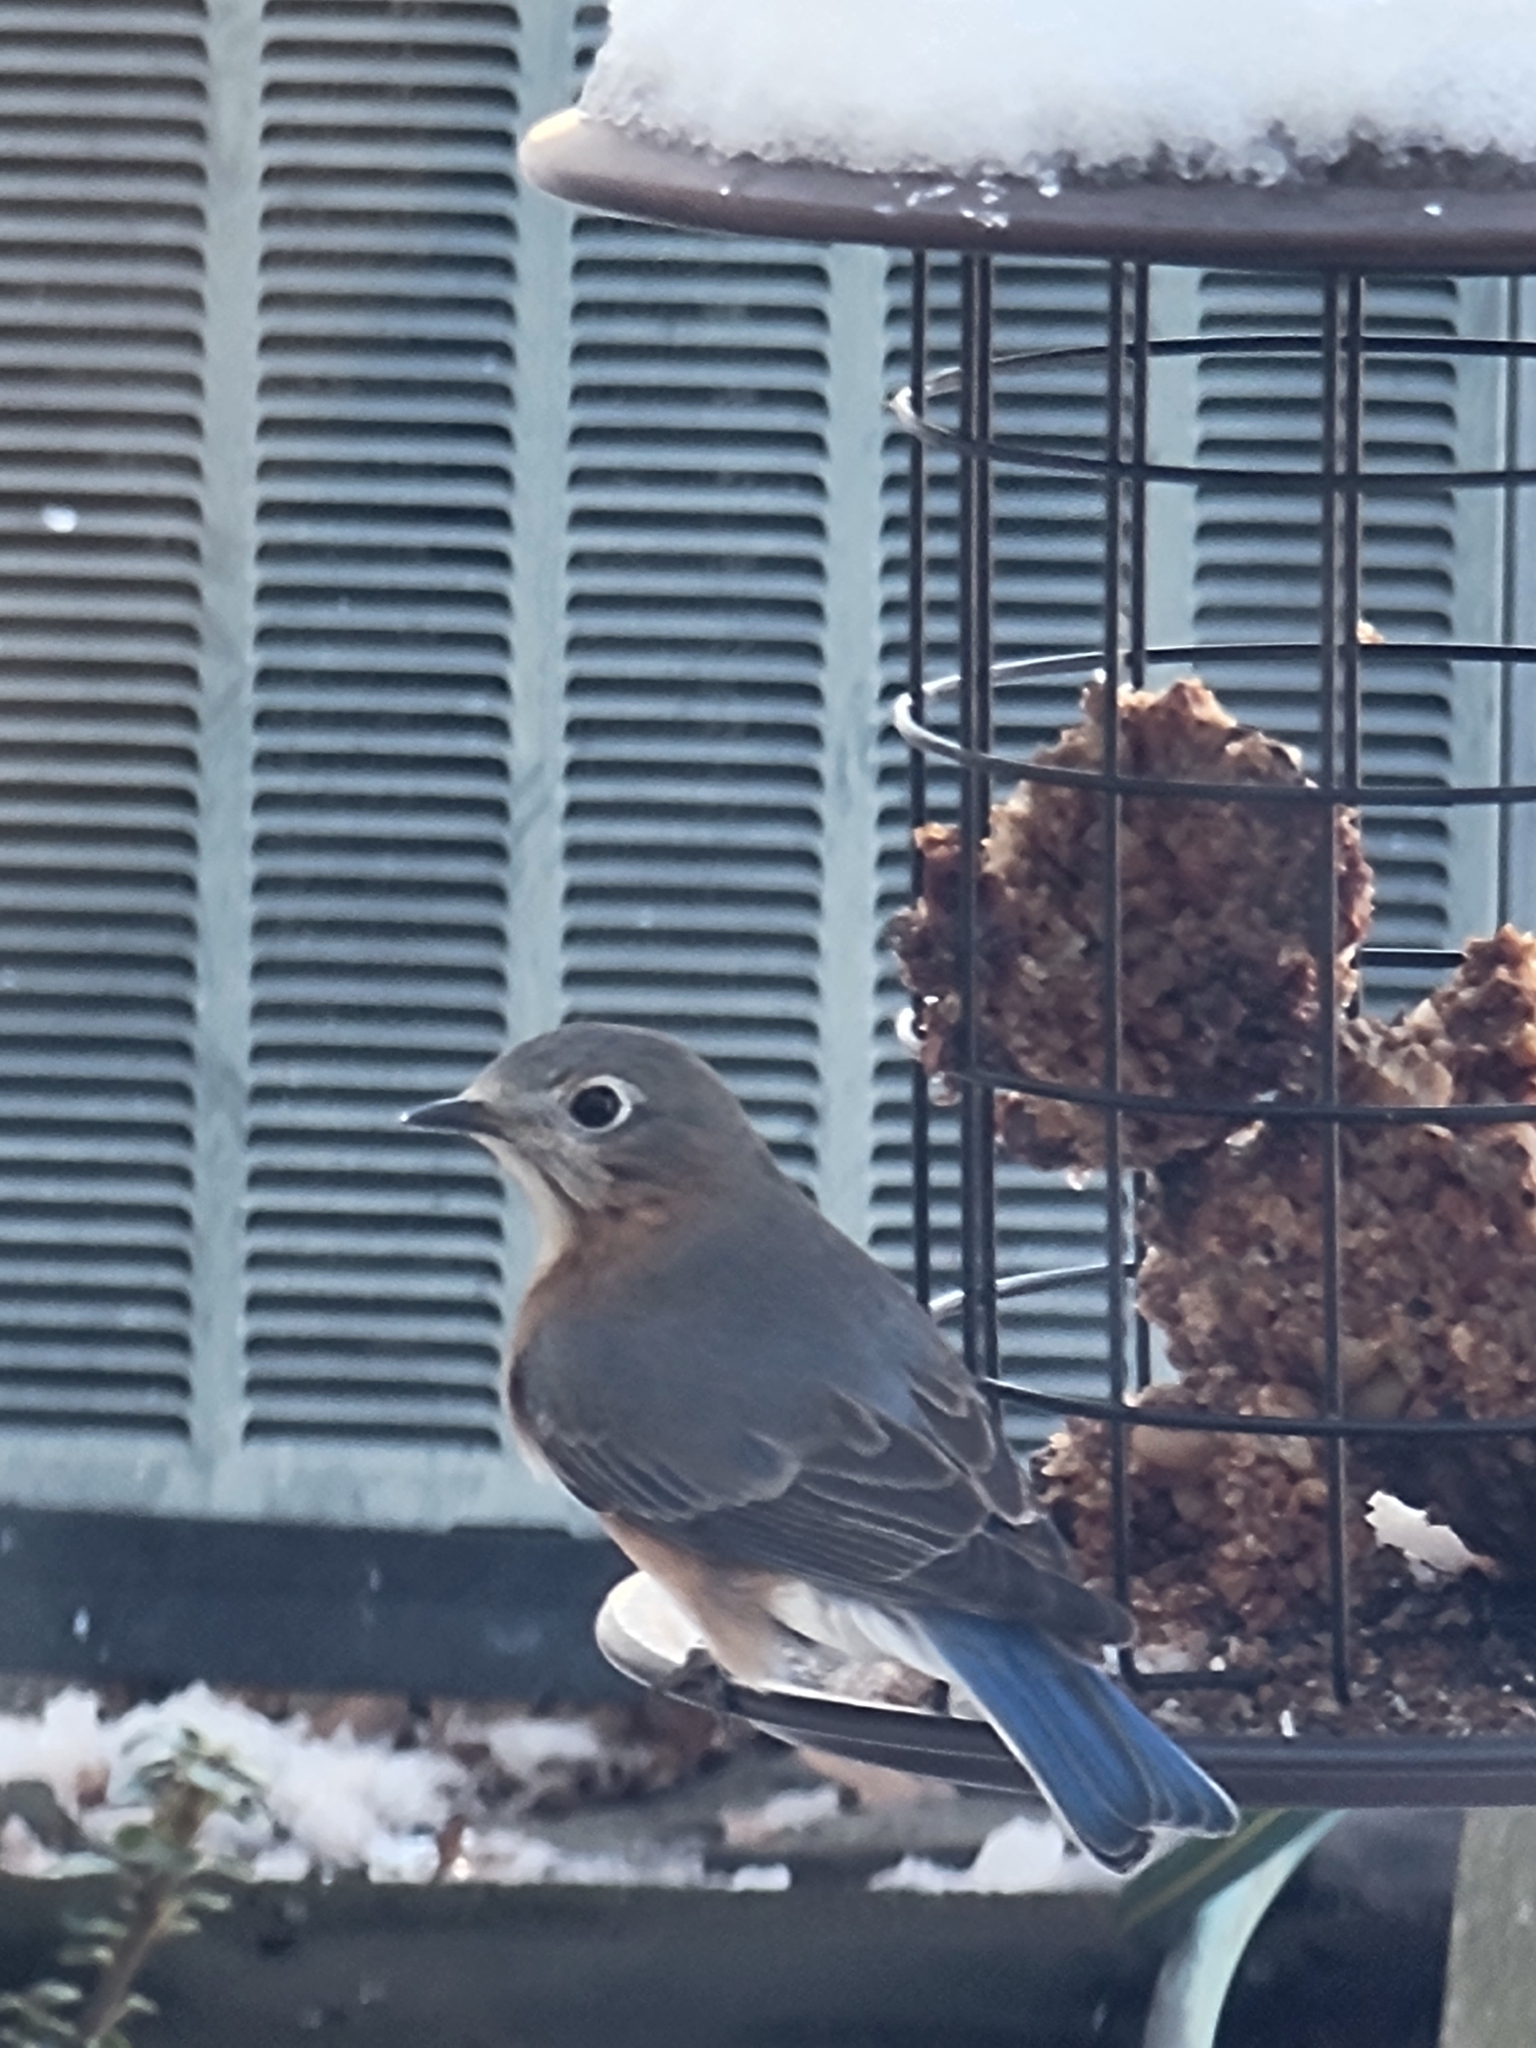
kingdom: Animalia
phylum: Chordata
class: Aves
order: Passeriformes
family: Turdidae
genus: Sialia
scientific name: Sialia sialis
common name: Eastern bluebird
